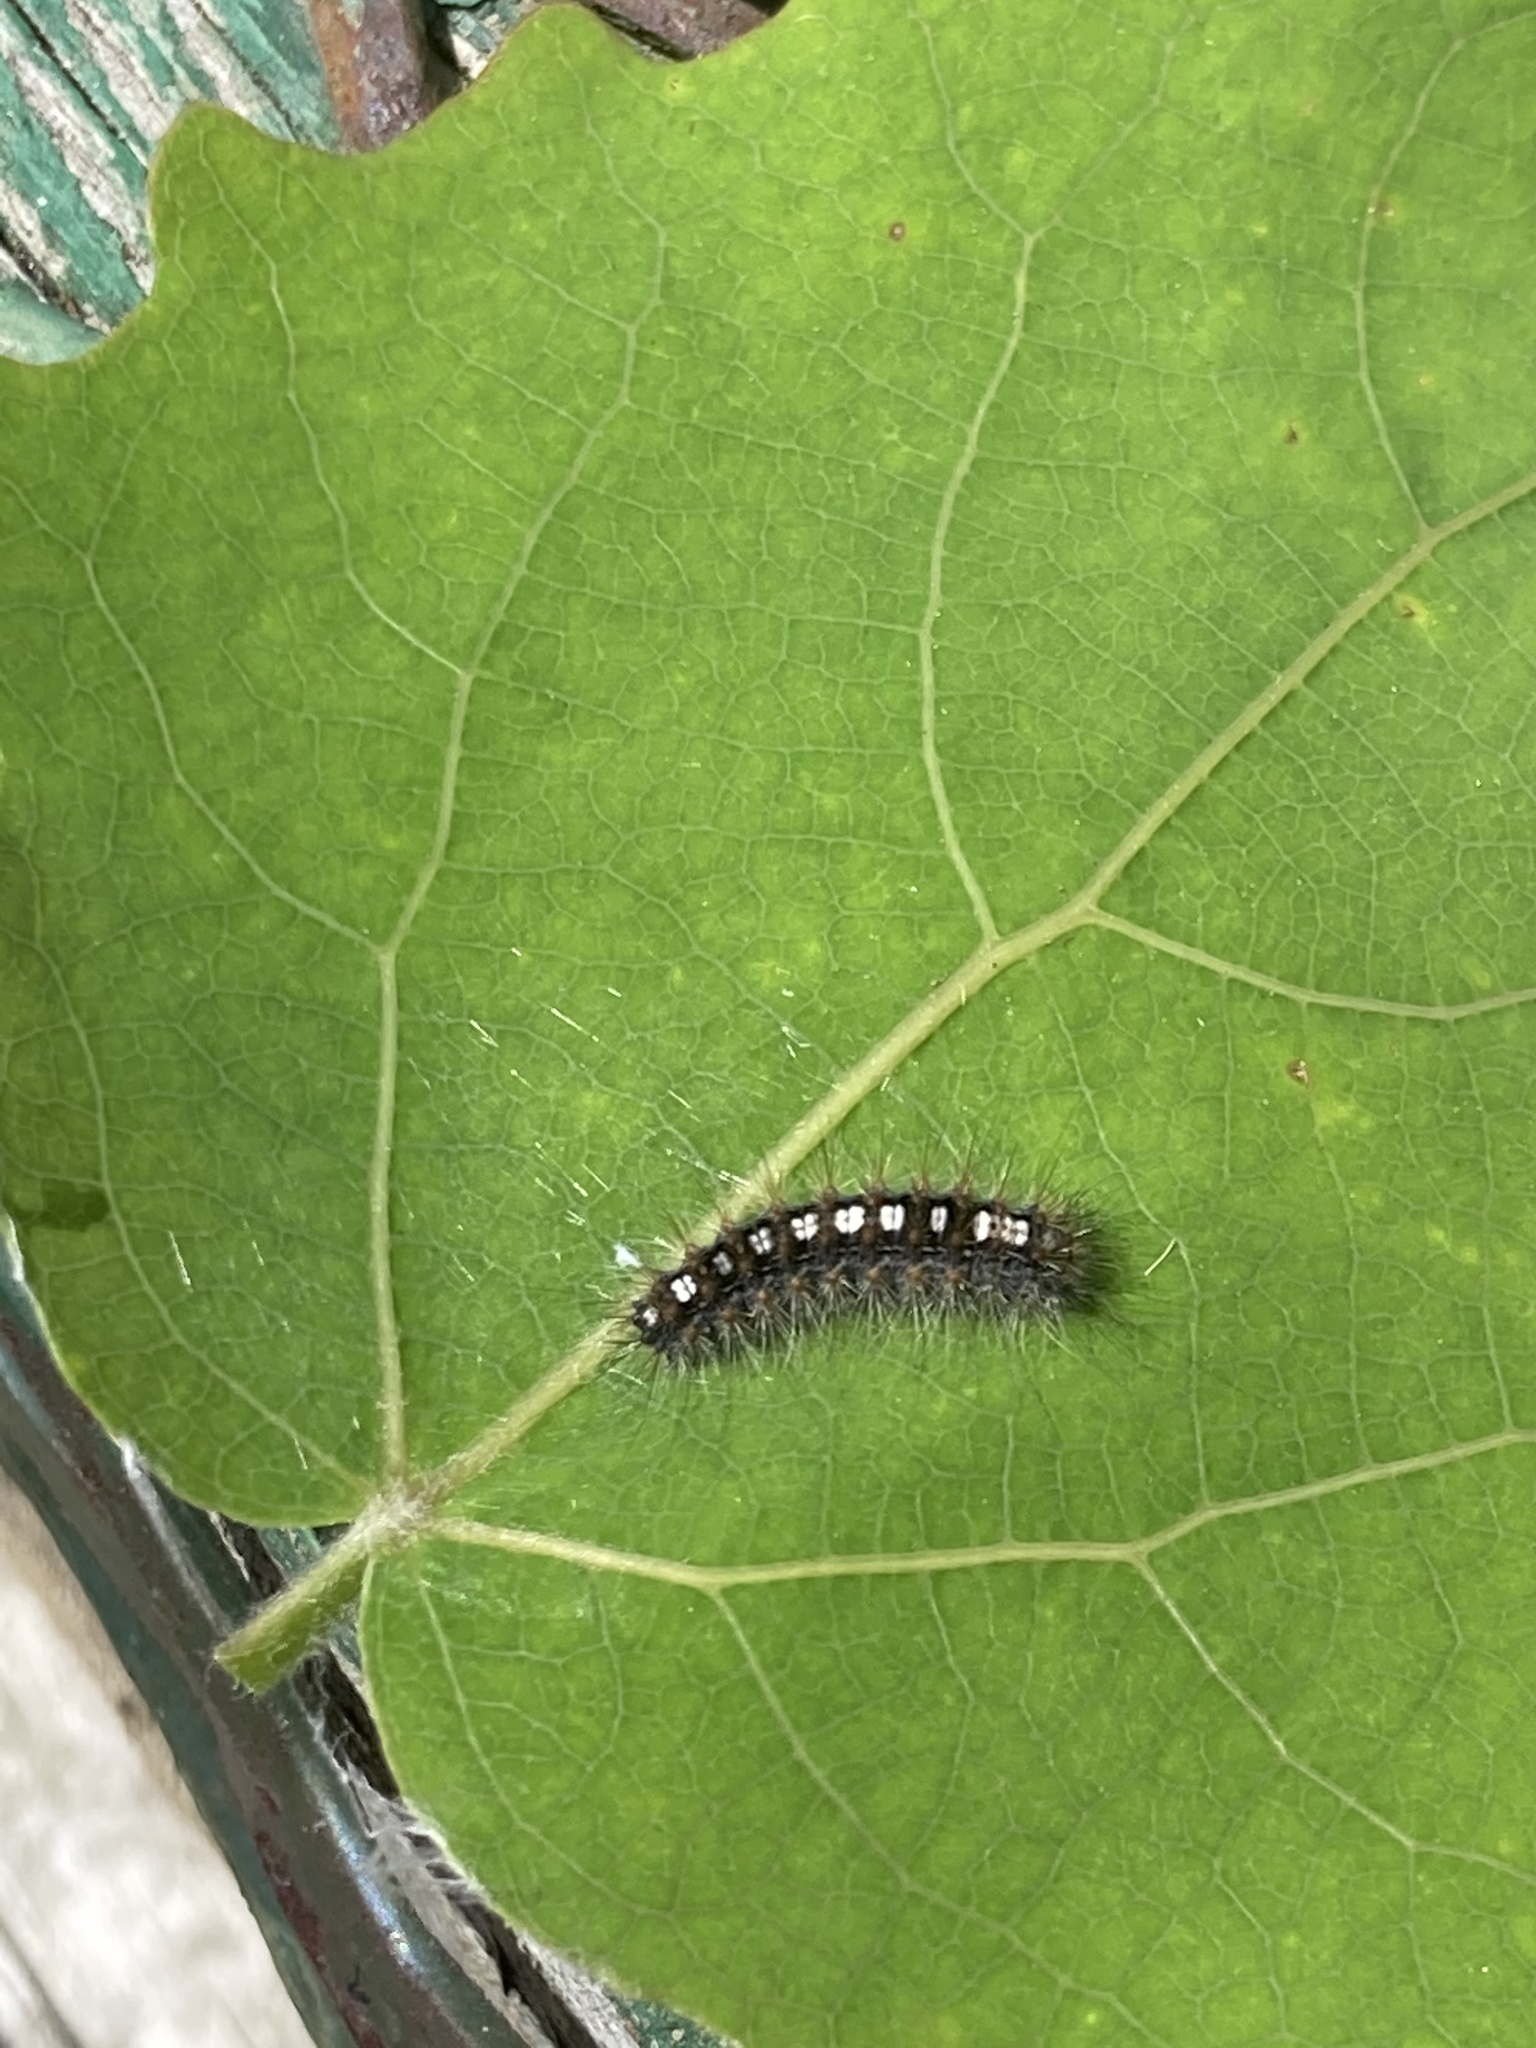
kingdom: Animalia
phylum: Arthropoda
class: Insecta
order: Lepidoptera
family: Erebidae
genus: Leucoma
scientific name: Leucoma salicis
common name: White satin moth
